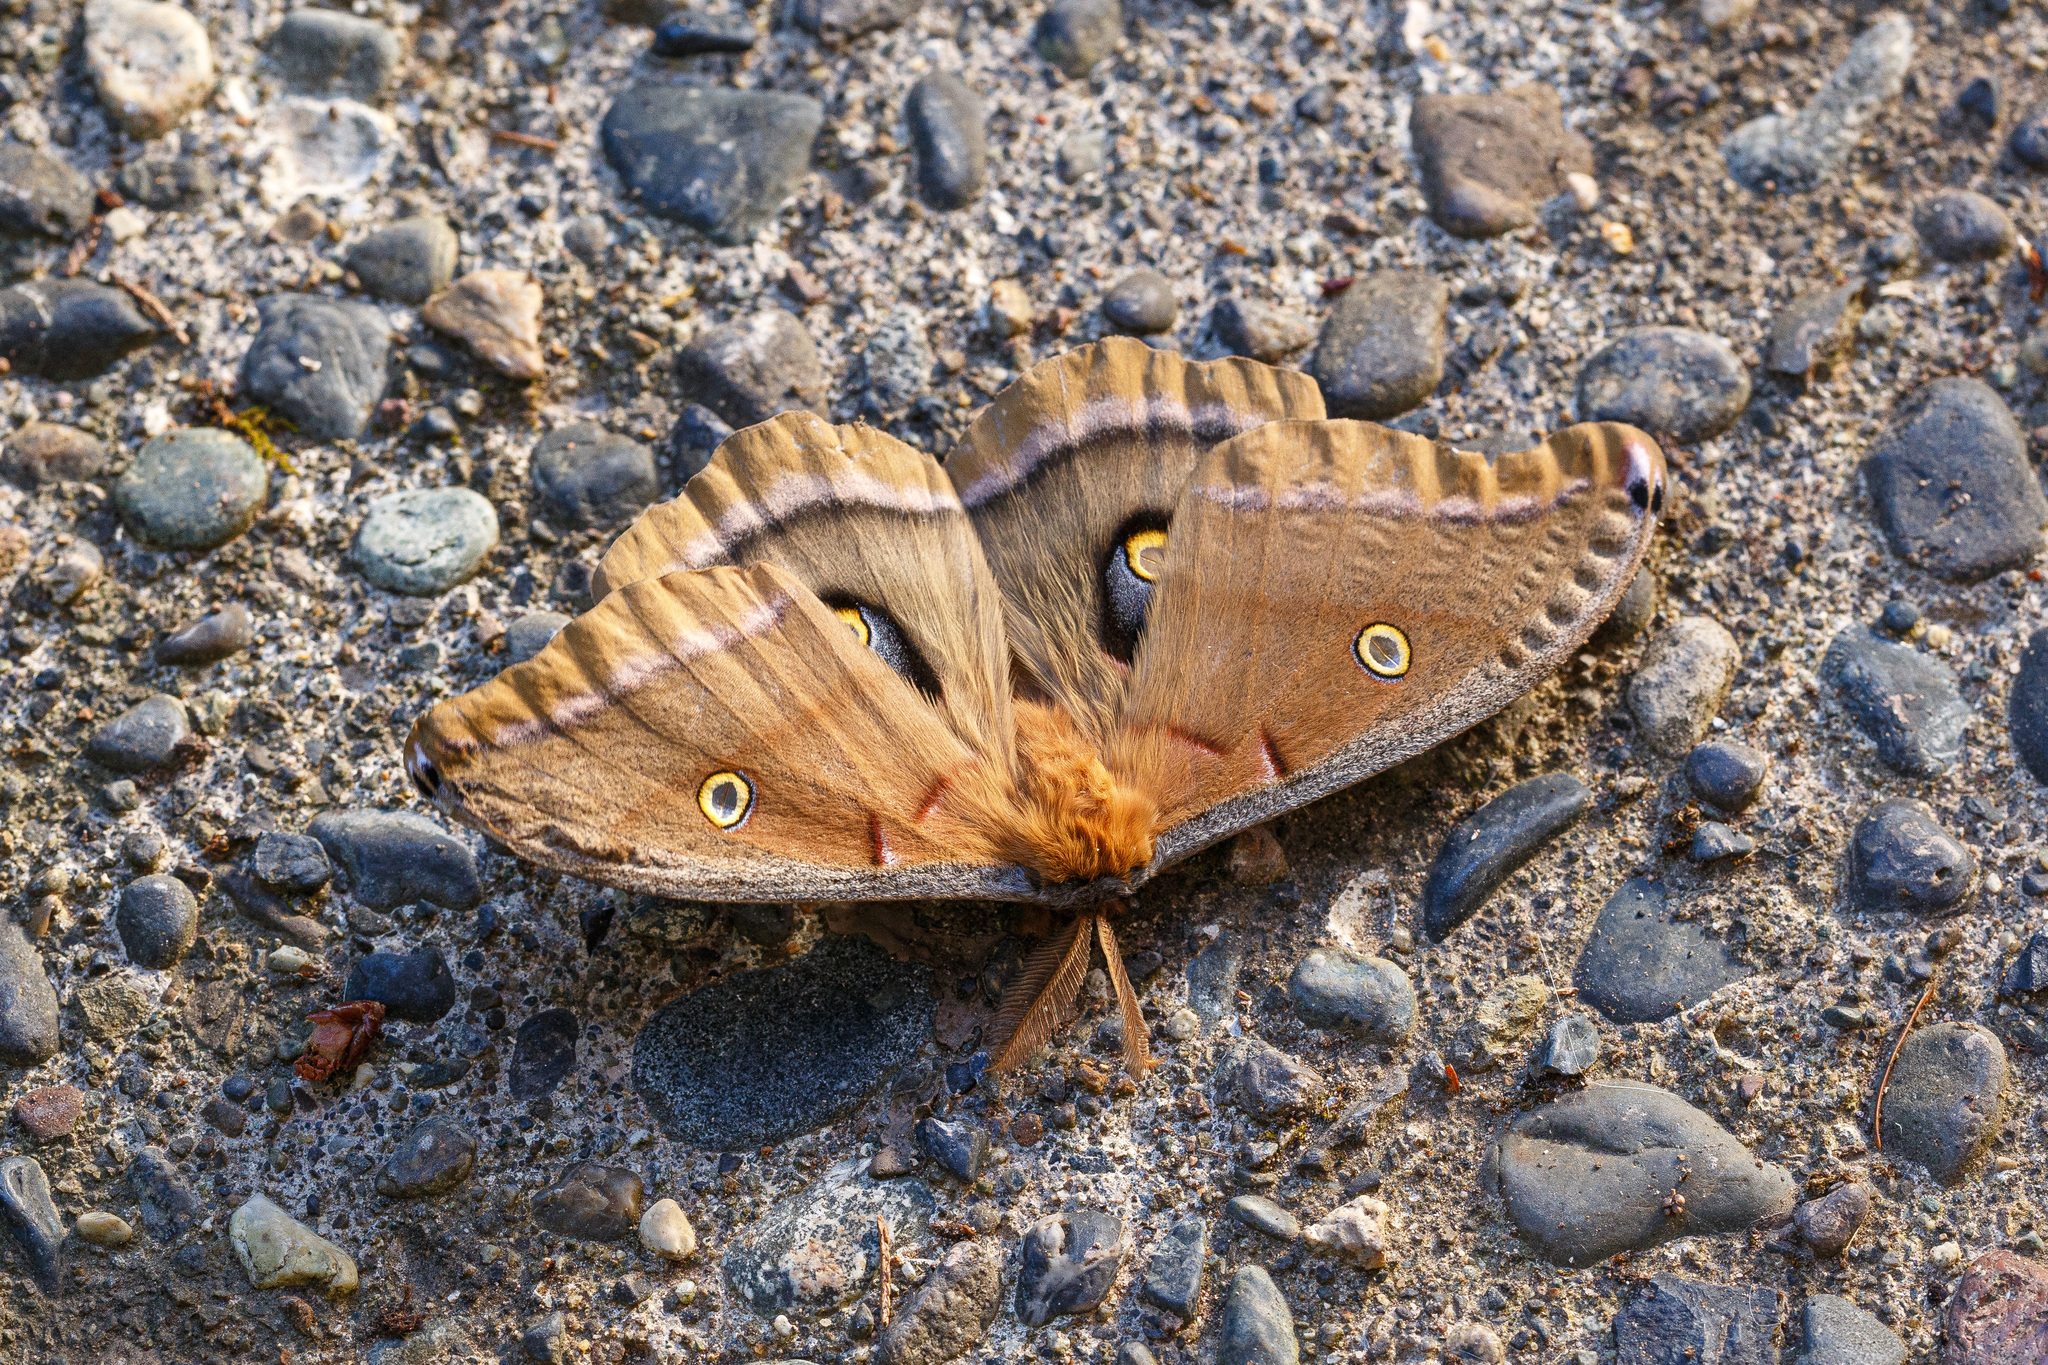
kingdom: Animalia
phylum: Arthropoda
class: Insecta
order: Lepidoptera
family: Saturniidae
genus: Antheraea
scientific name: Antheraea polyphemus
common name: Polyphemus moth
